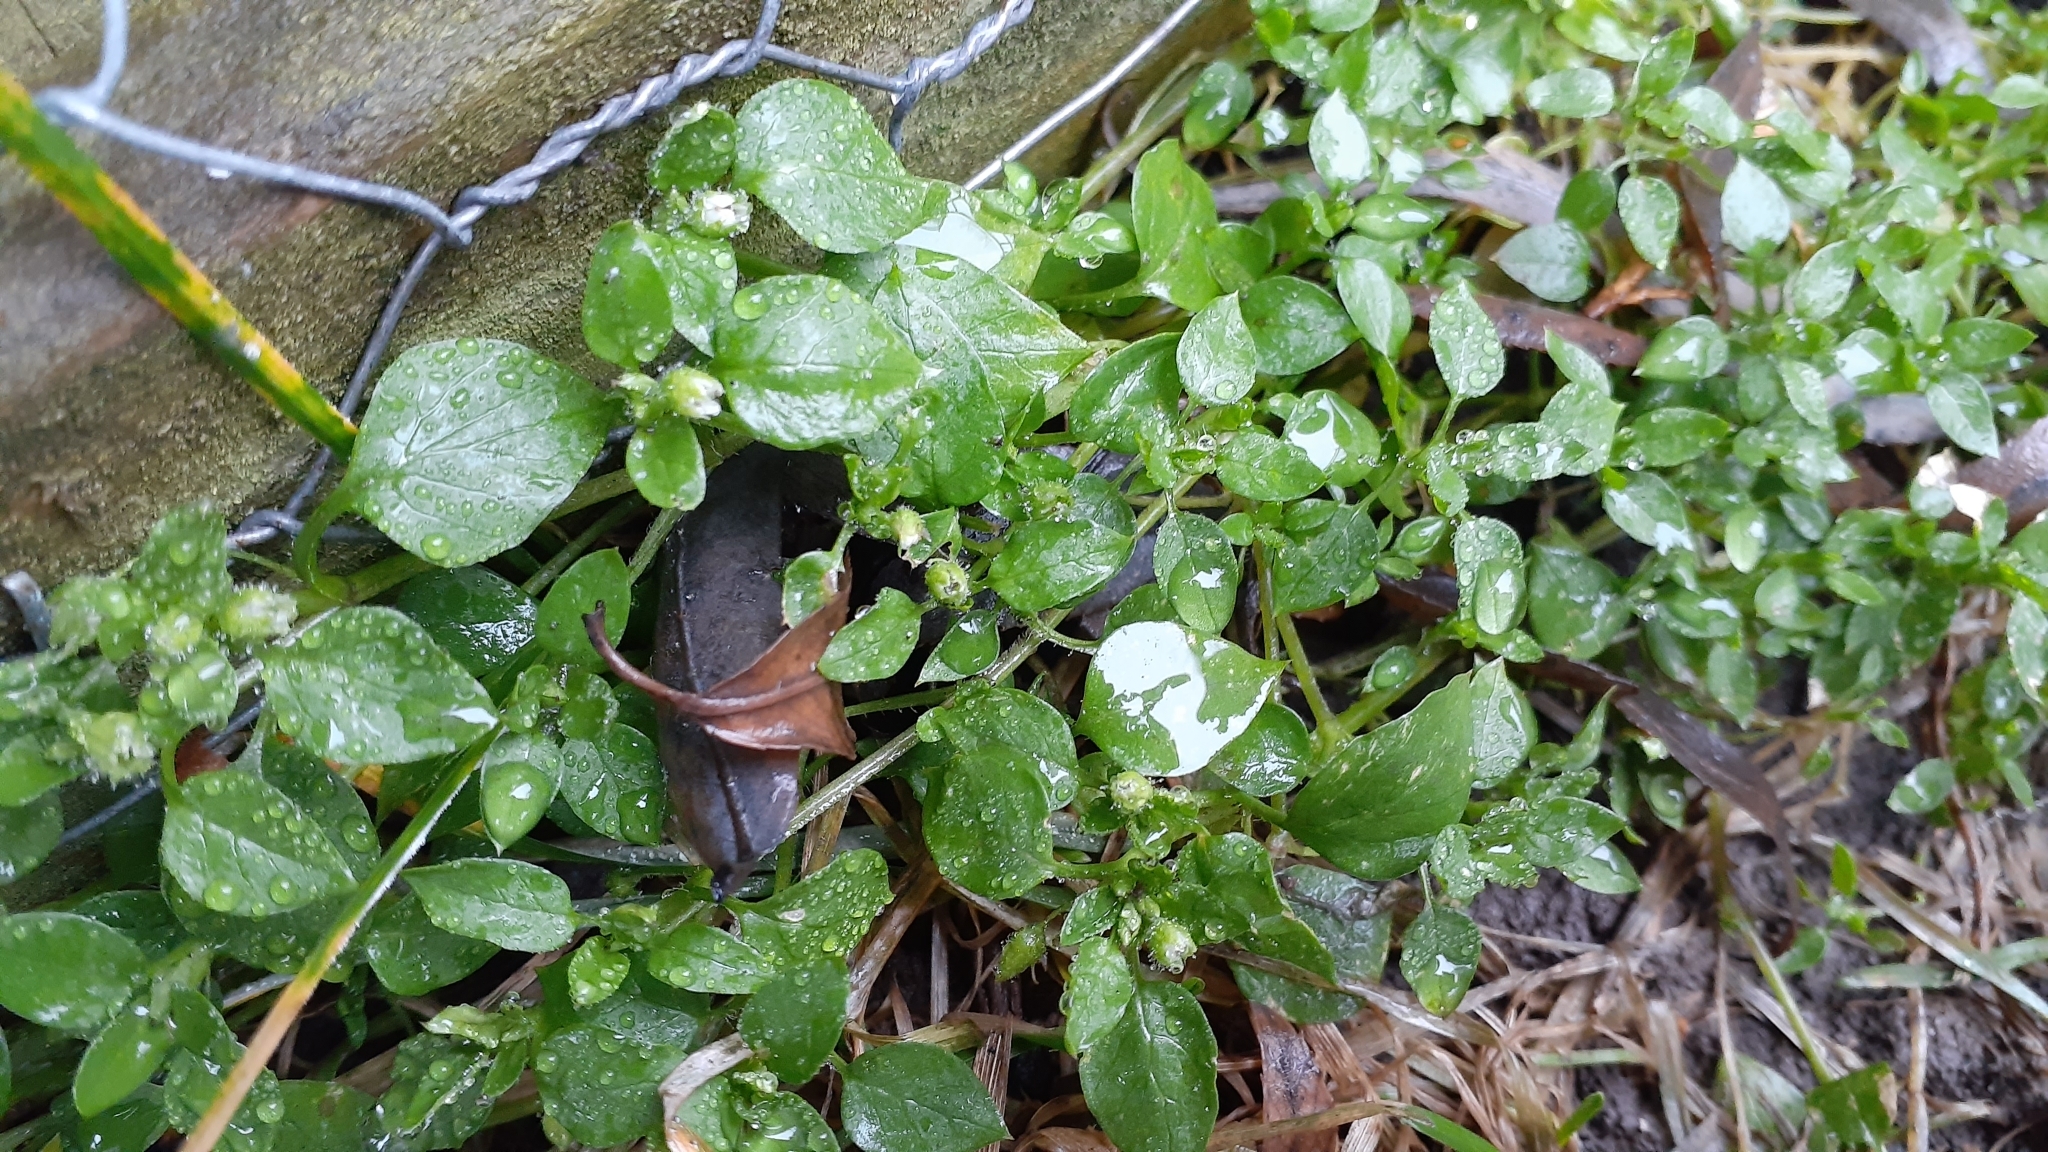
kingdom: Plantae
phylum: Tracheophyta
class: Magnoliopsida
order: Caryophyllales
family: Caryophyllaceae
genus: Stellaria
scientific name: Stellaria media
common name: Common chickweed
